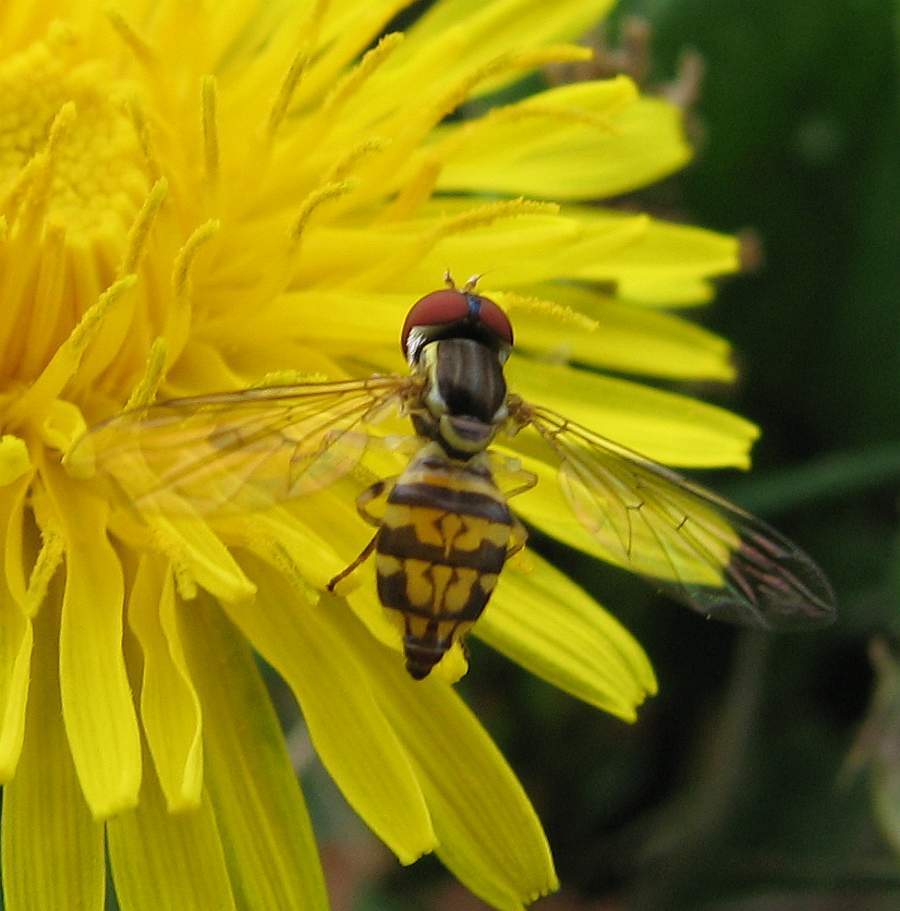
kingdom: Animalia
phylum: Arthropoda
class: Insecta
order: Diptera
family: Syrphidae
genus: Toxomerus
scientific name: Toxomerus geminatus
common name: Eastern calligrapher
